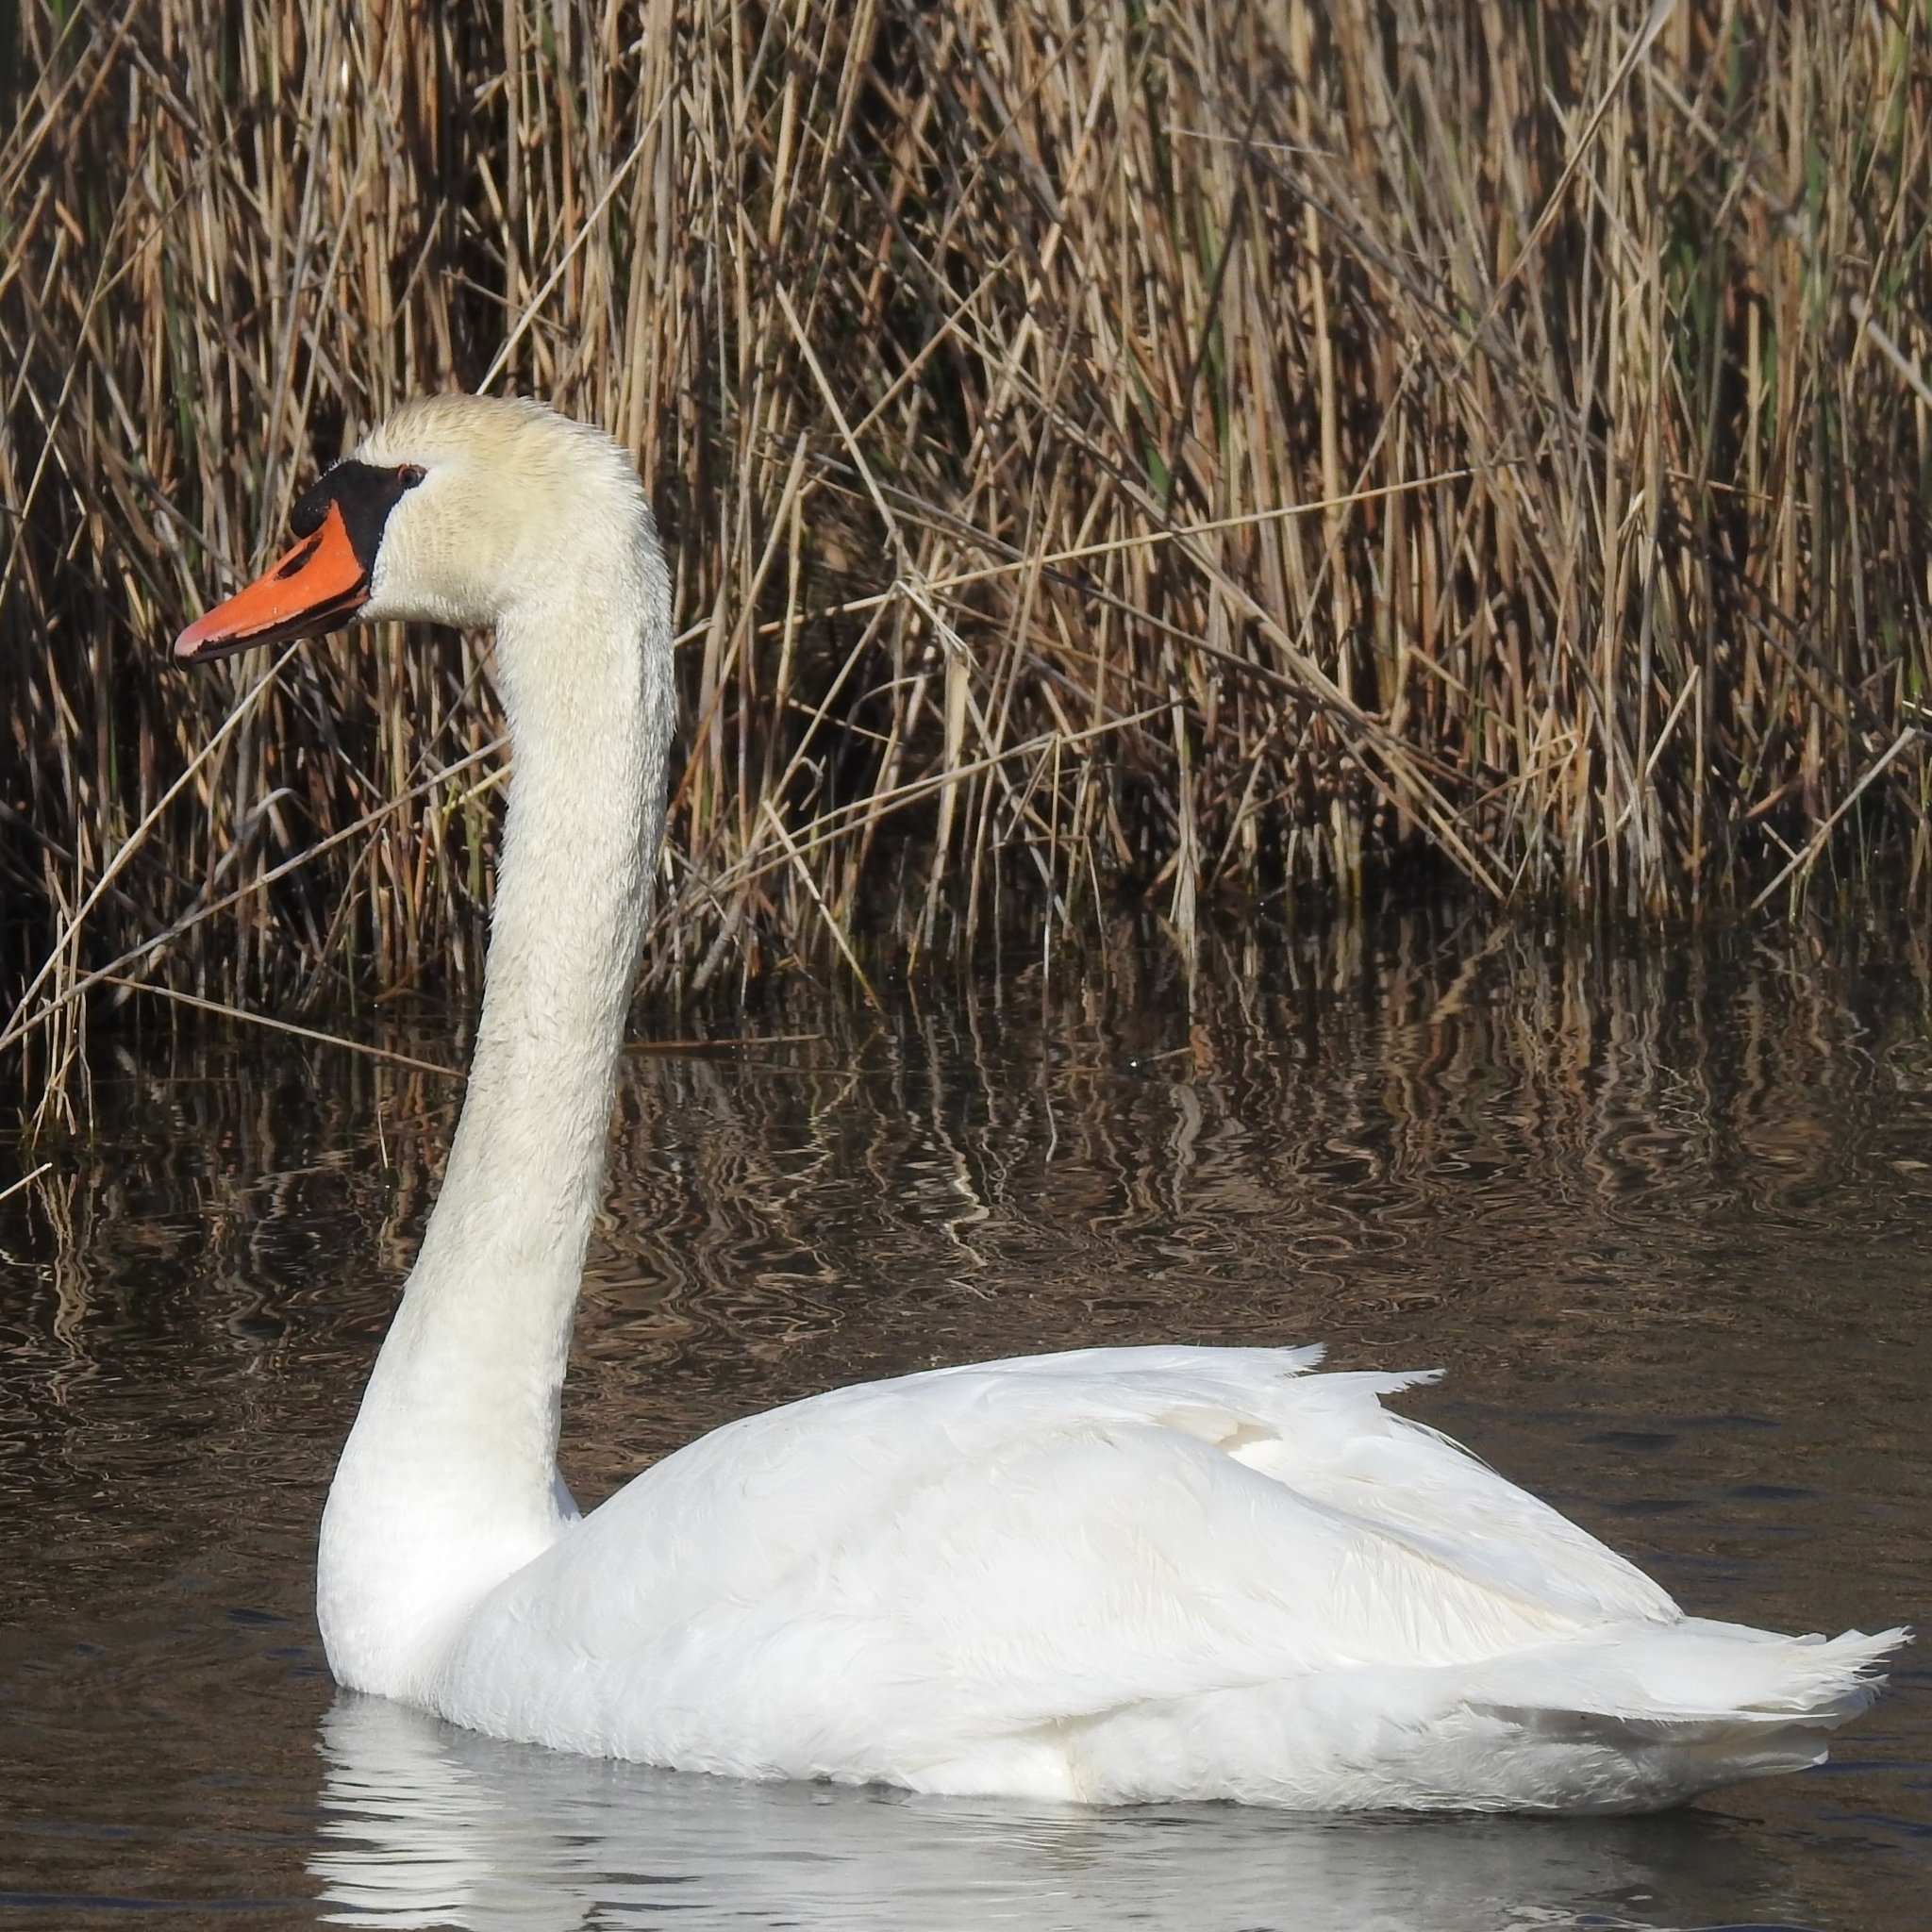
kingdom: Animalia
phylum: Chordata
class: Aves
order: Anseriformes
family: Anatidae
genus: Cygnus
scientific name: Cygnus olor
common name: Mute swan
